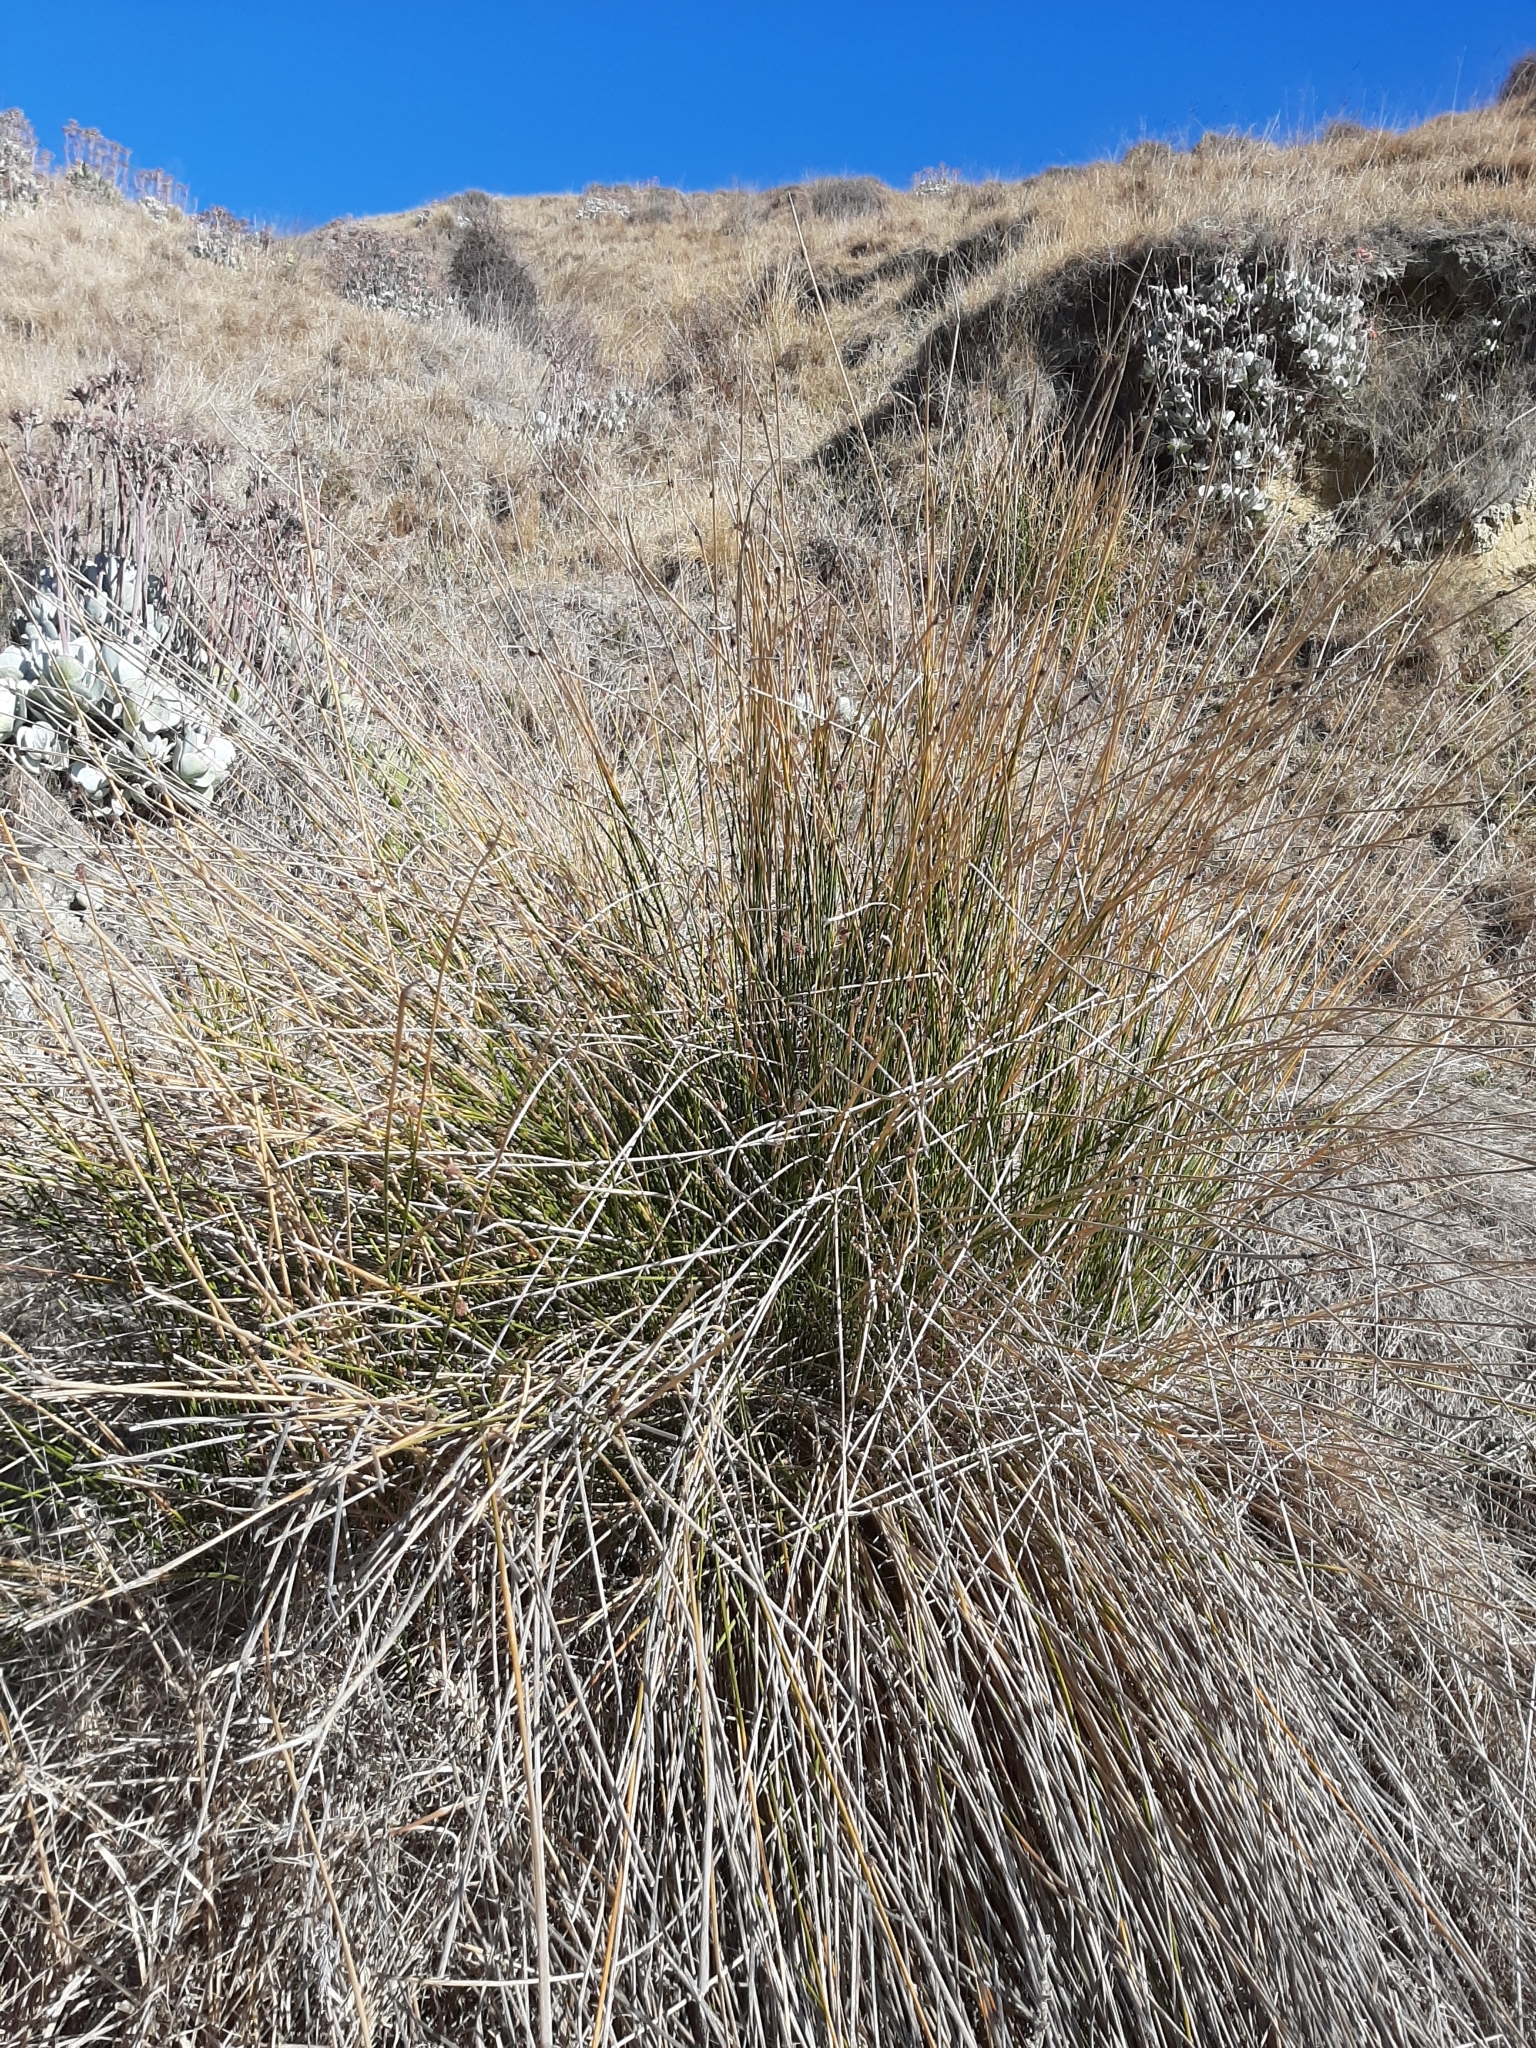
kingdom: Plantae
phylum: Tracheophyta
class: Liliopsida
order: Poales
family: Cyperaceae
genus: Ficinia
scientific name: Ficinia nodosa
